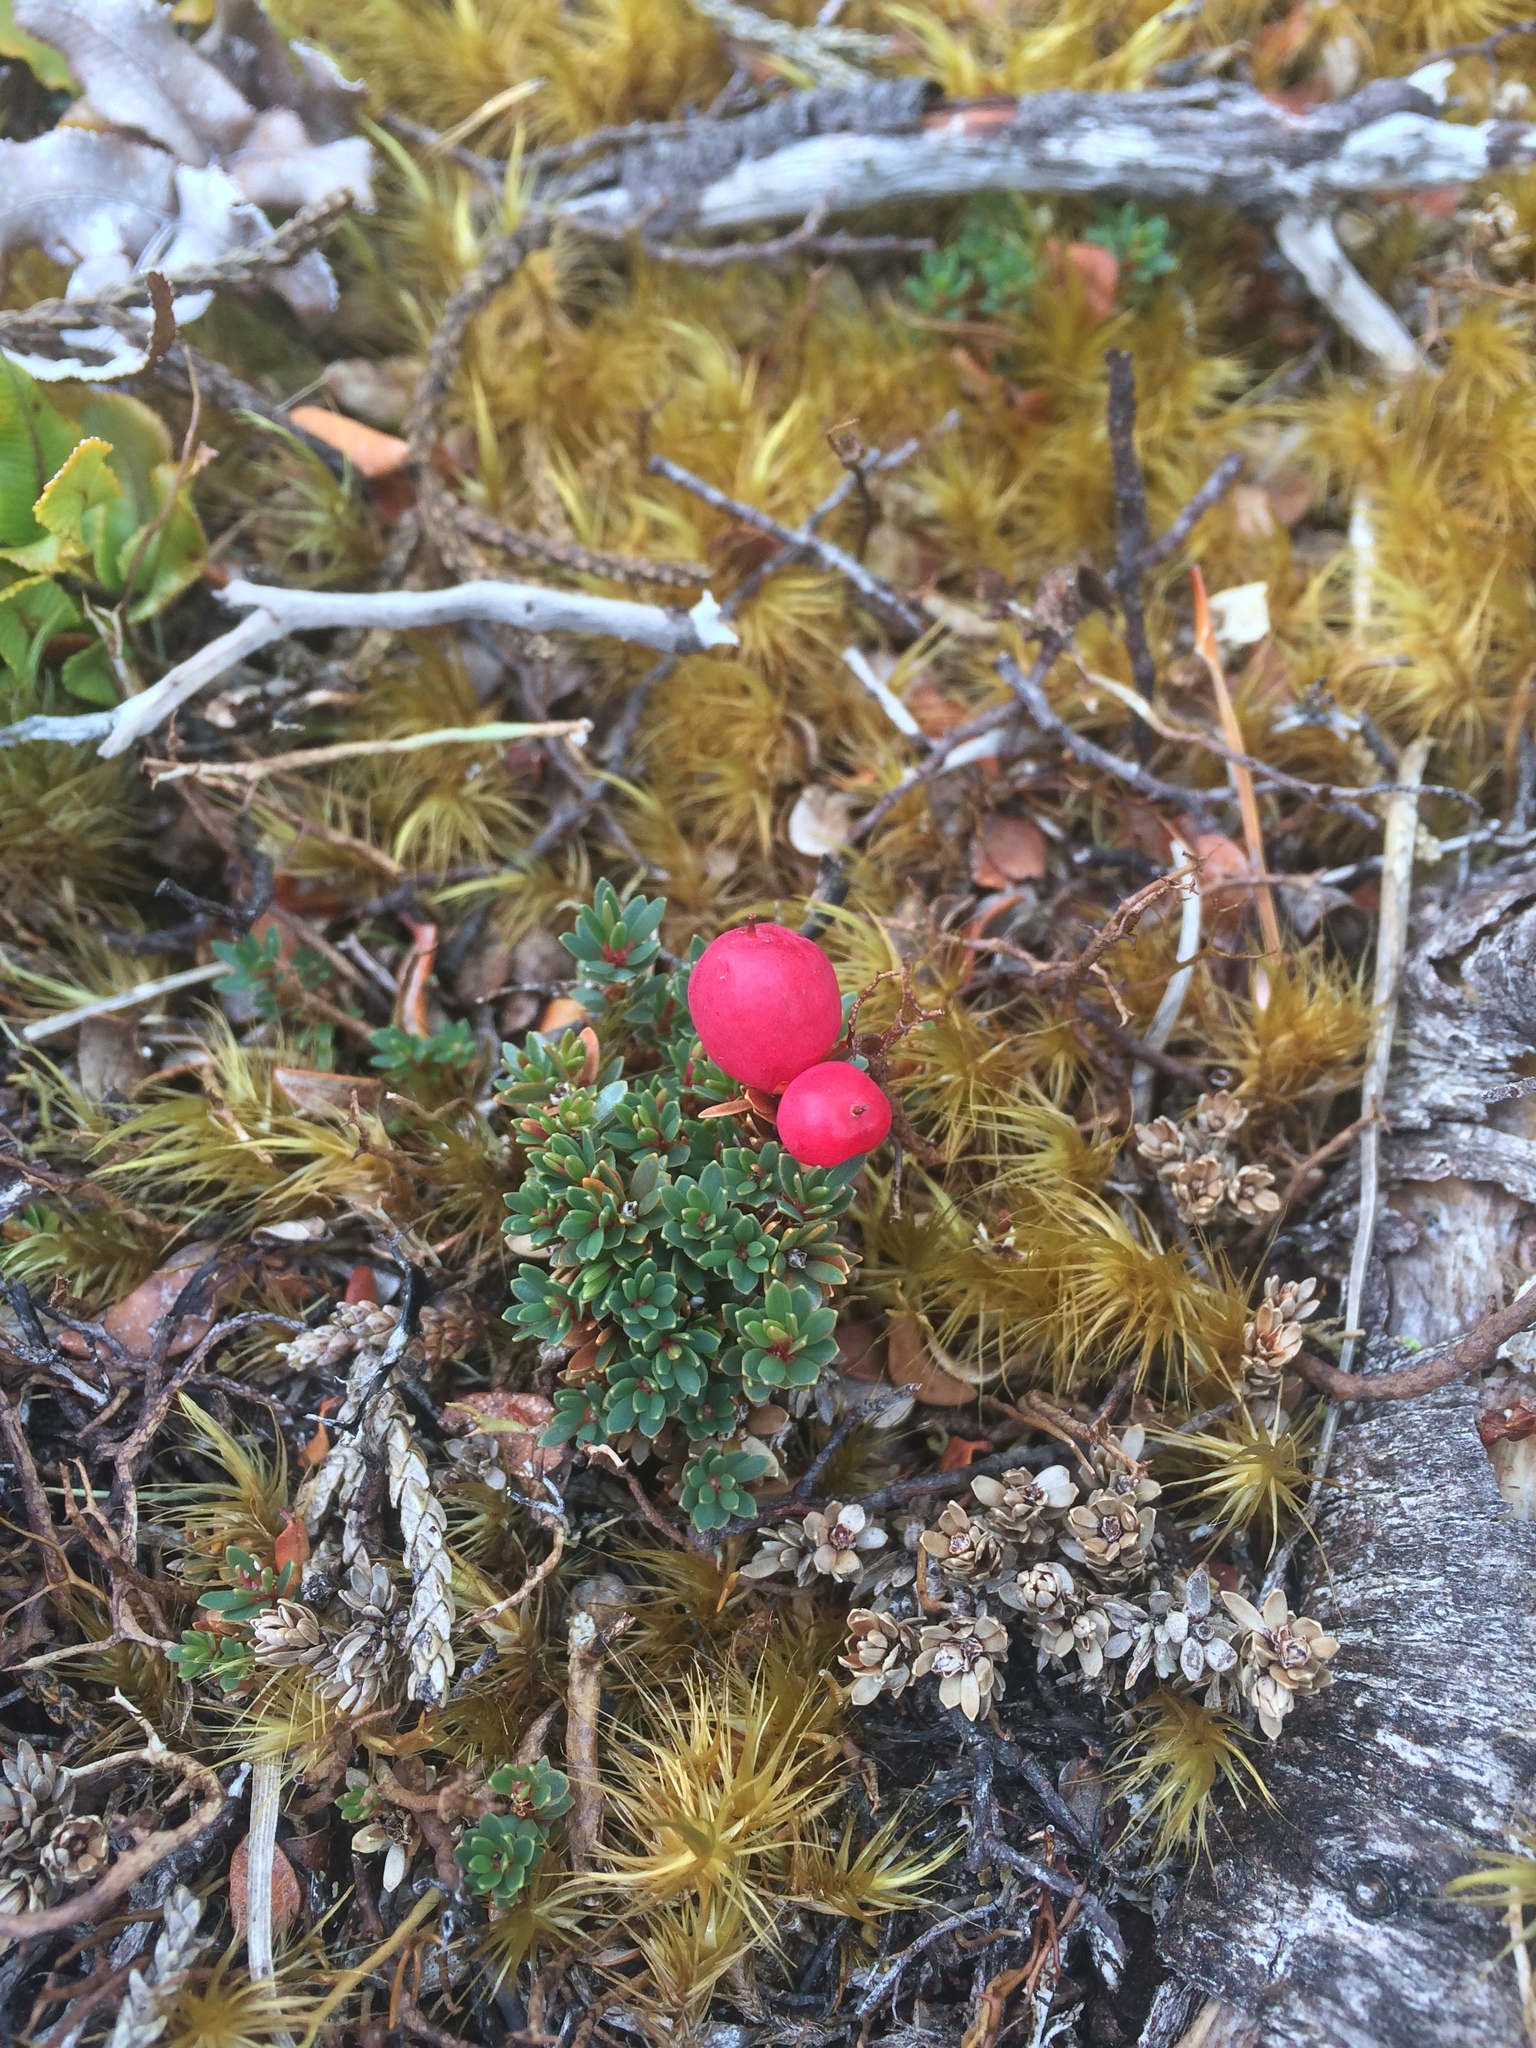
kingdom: Plantae
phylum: Tracheophyta
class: Magnoliopsida
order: Ericales
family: Ericaceae
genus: Pentachondra
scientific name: Pentachondra pumila
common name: Carpet-heath
